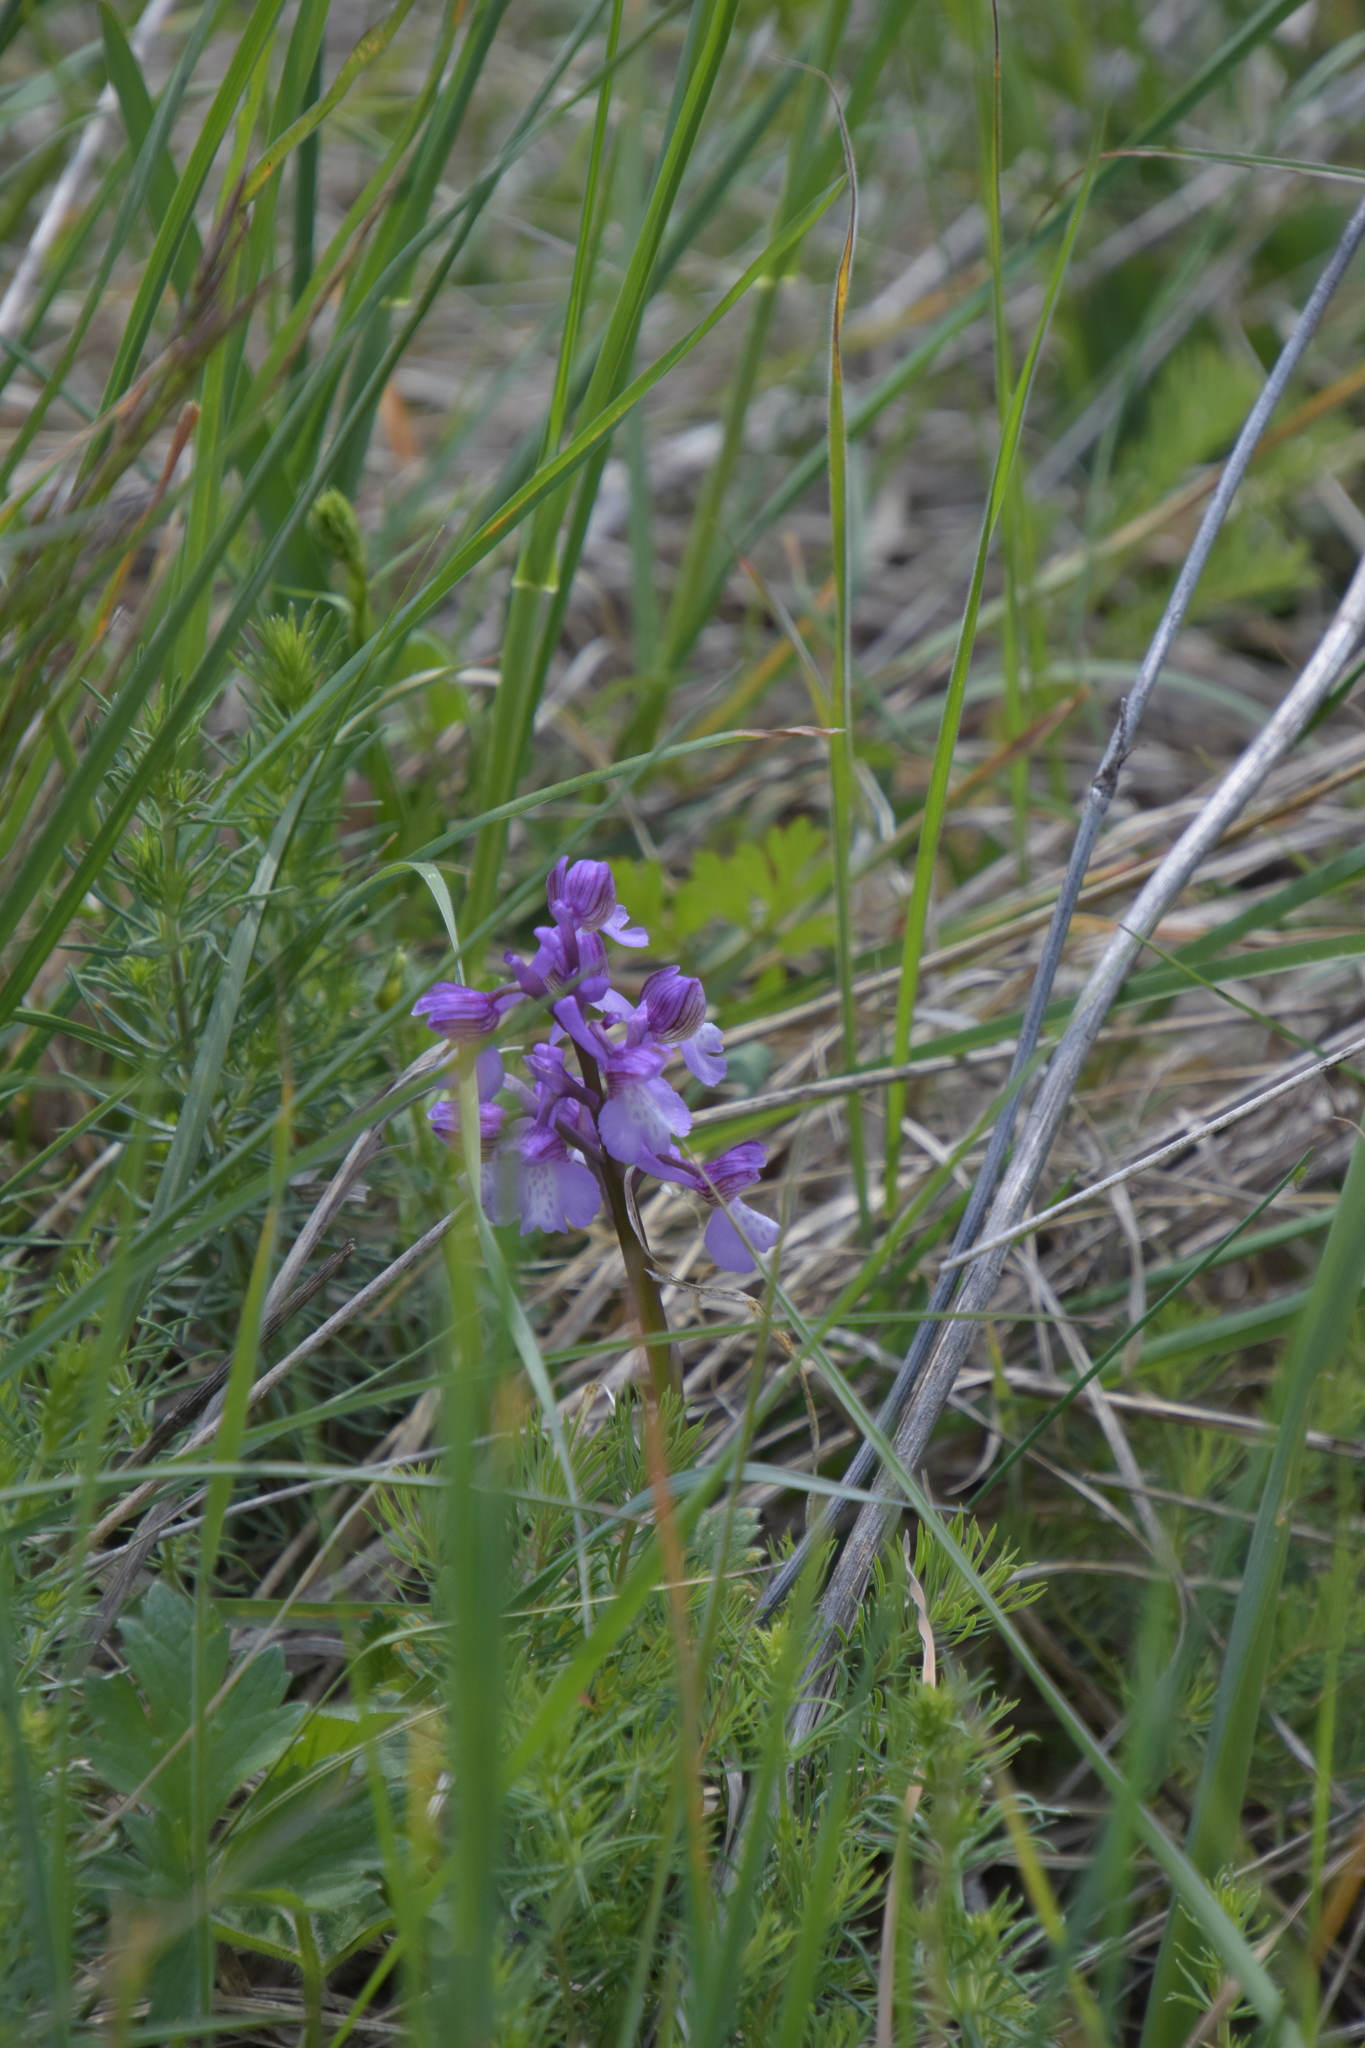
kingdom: Plantae
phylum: Tracheophyta
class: Liliopsida
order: Asparagales
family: Orchidaceae
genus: Anacamptis
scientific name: Anacamptis morio
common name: Green-winged orchid
